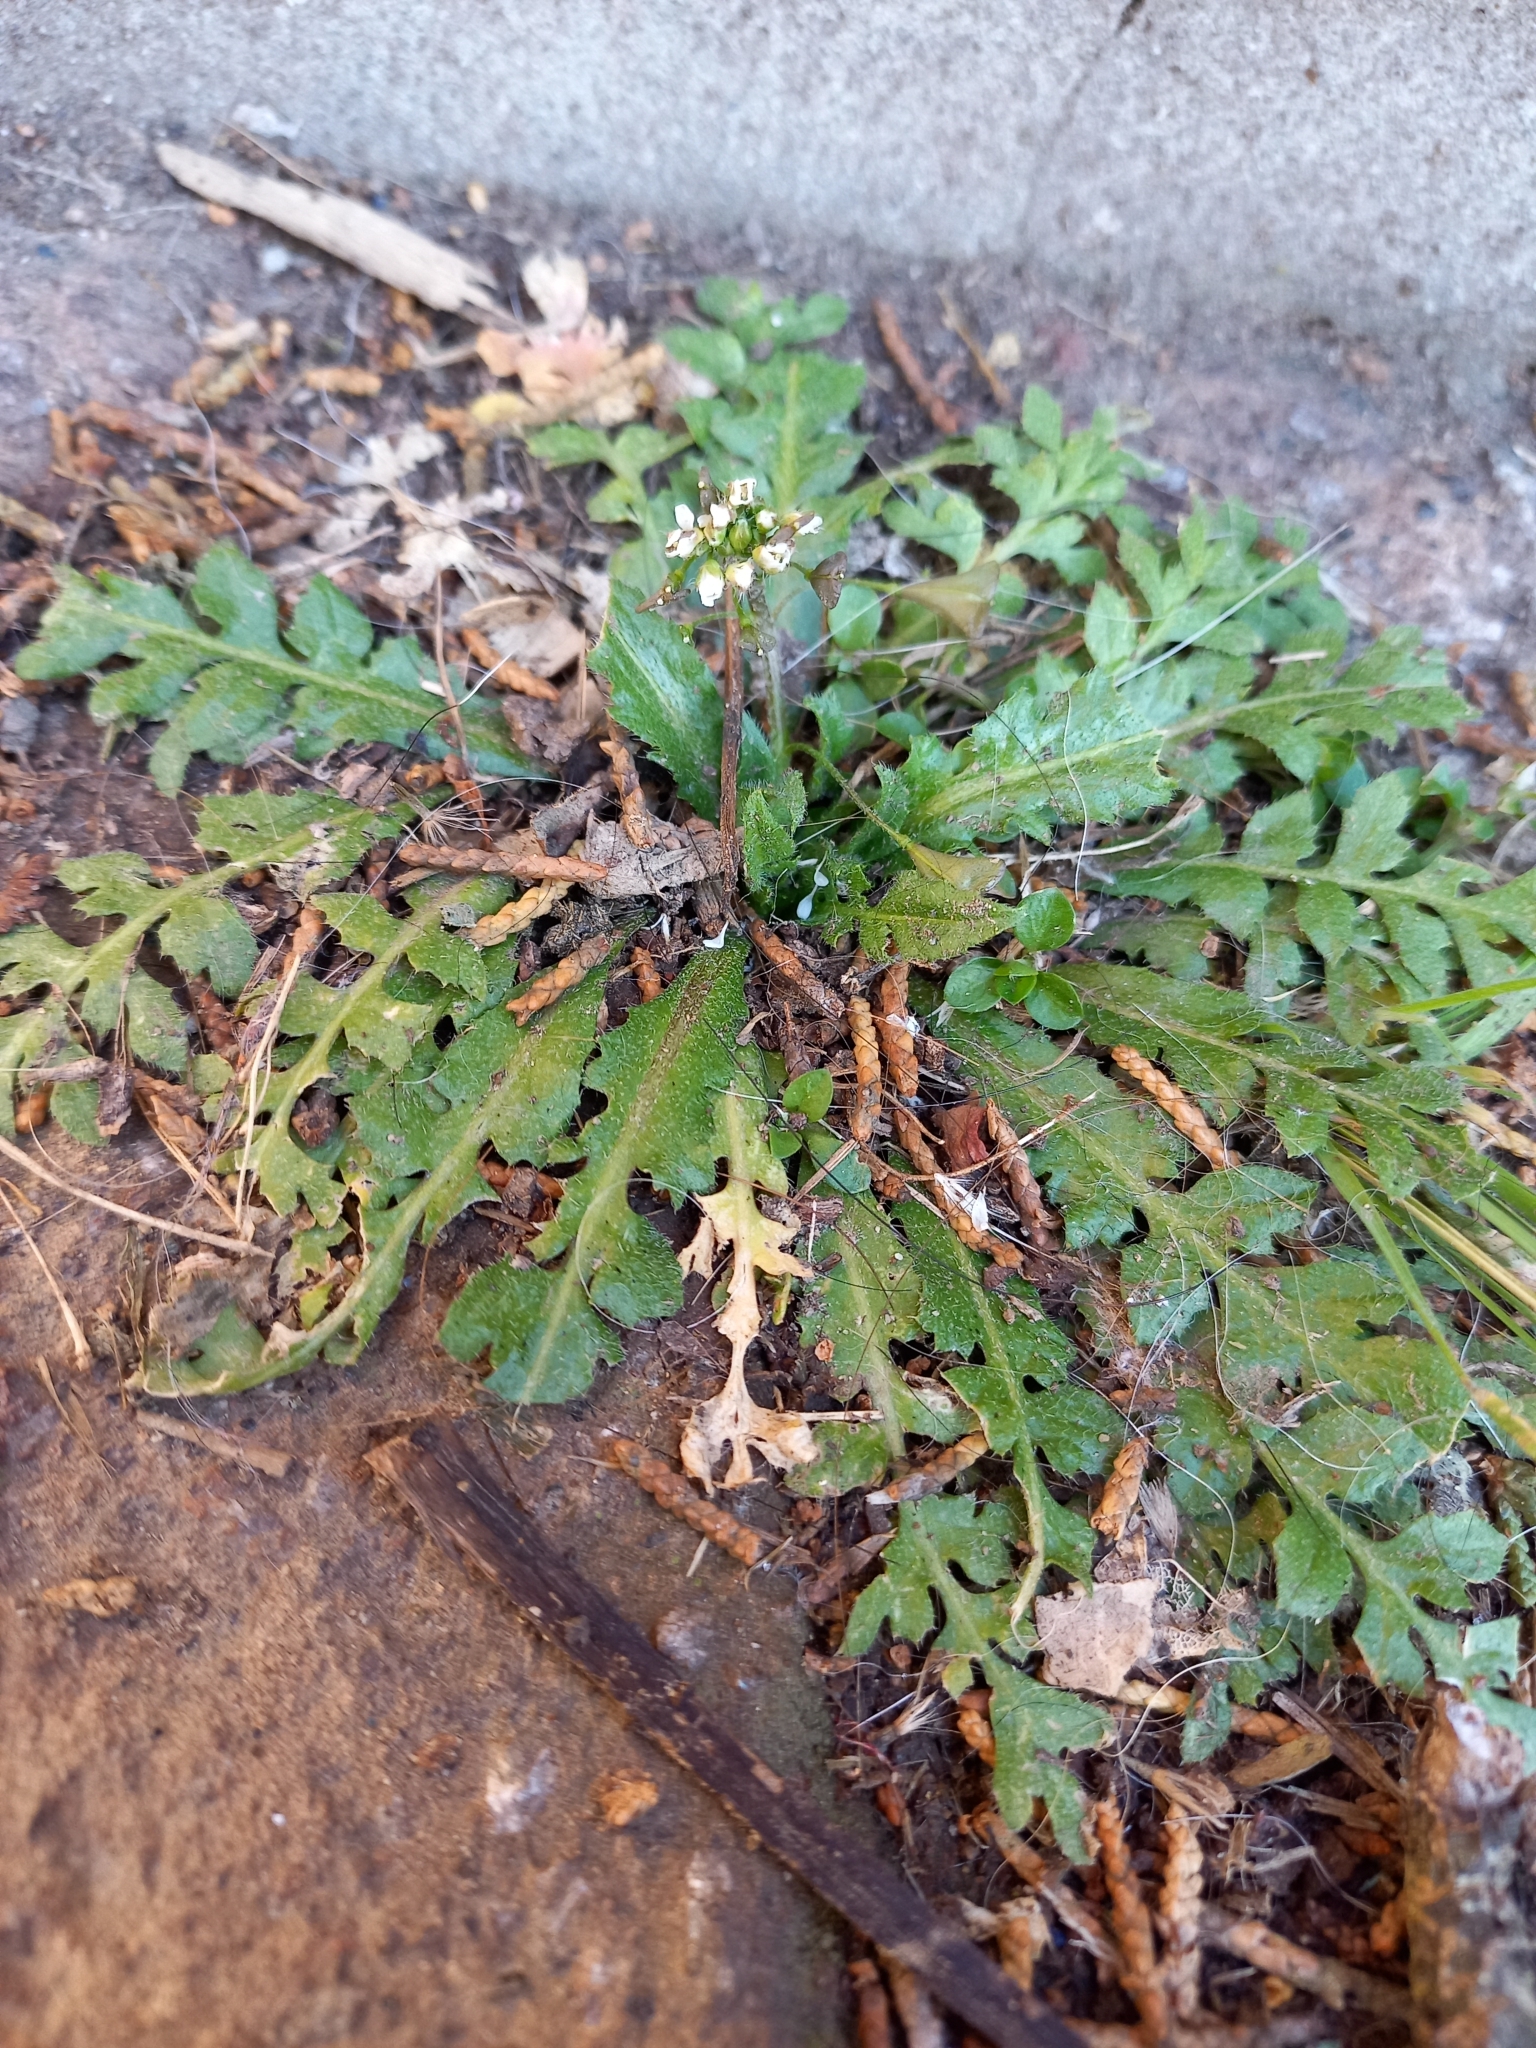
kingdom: Plantae
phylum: Tracheophyta
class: Magnoliopsida
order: Brassicales
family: Brassicaceae
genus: Capsella
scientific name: Capsella bursa-pastoris
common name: Shepherd's purse
